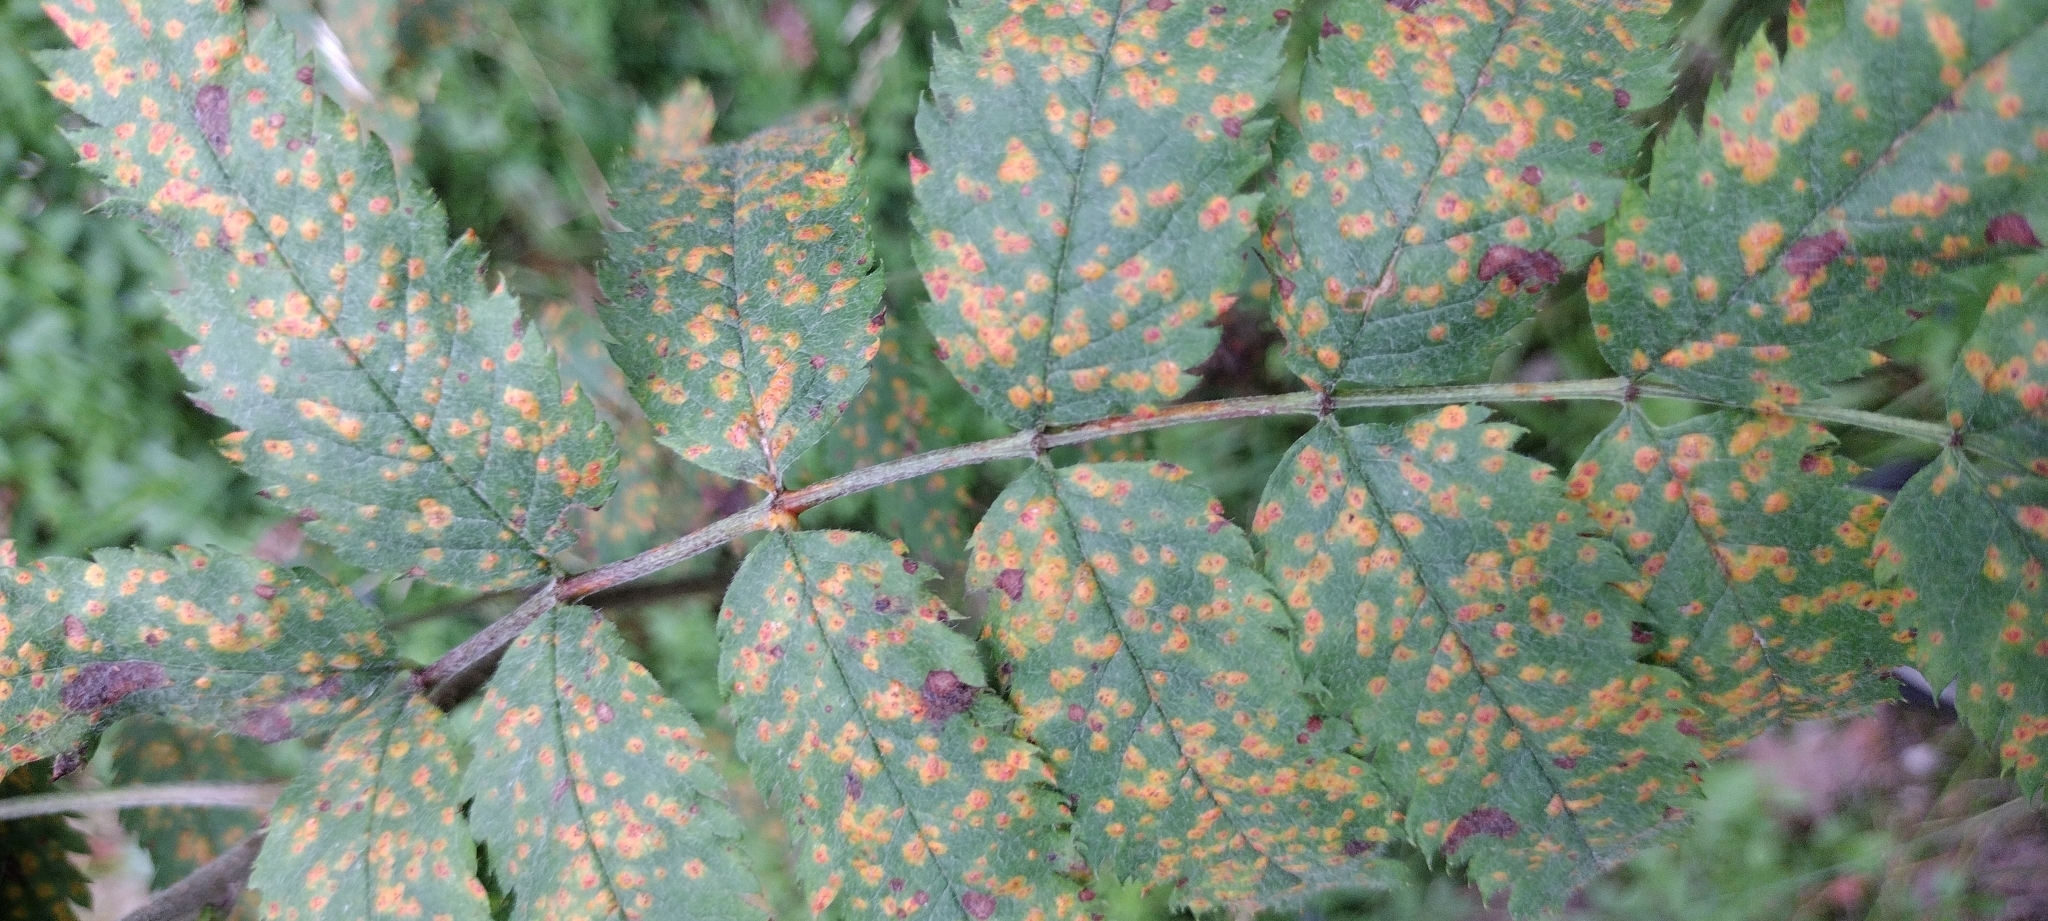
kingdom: Fungi
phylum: Basidiomycota
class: Pucciniomycetes
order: Pucciniales
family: Gymnosporangiaceae
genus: Gymnosporangium
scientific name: Gymnosporangium cornutum
